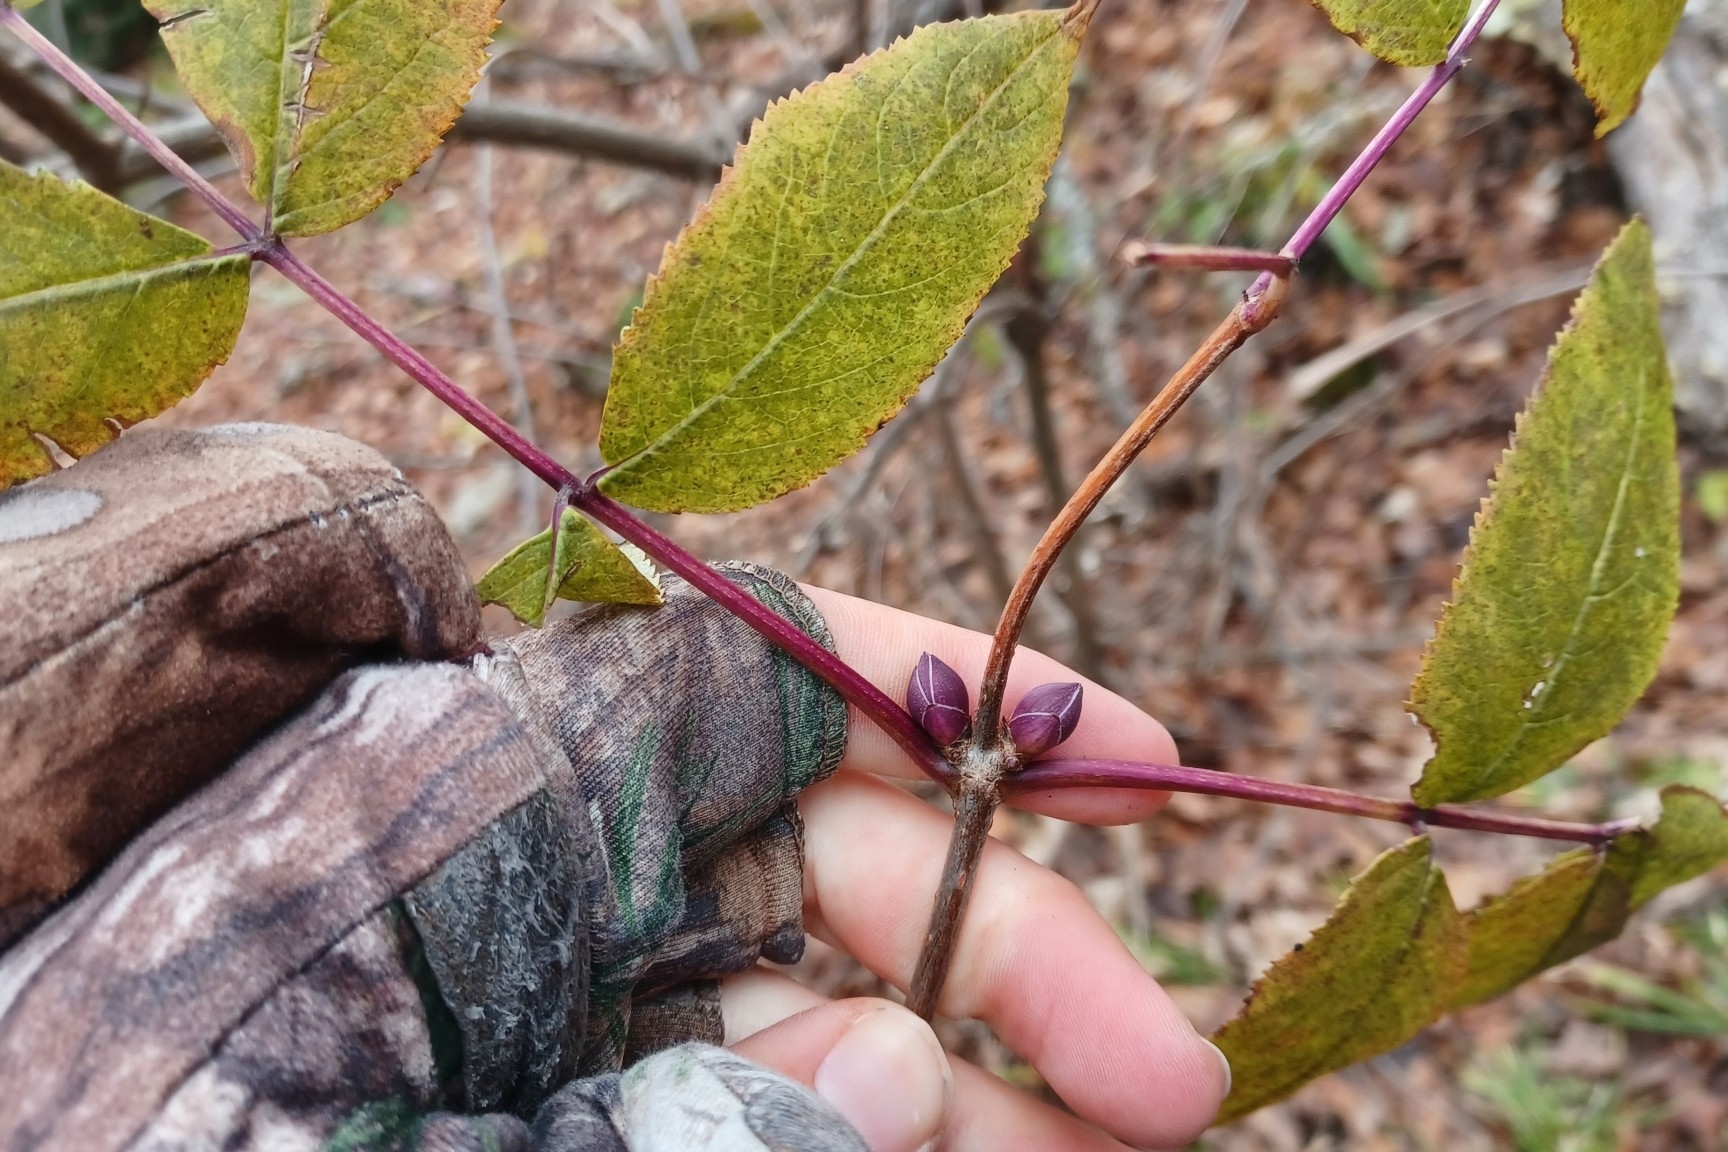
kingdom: Plantae
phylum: Tracheophyta
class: Magnoliopsida
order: Dipsacales
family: Viburnaceae
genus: Sambucus
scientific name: Sambucus racemosa
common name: Red-berried elder
